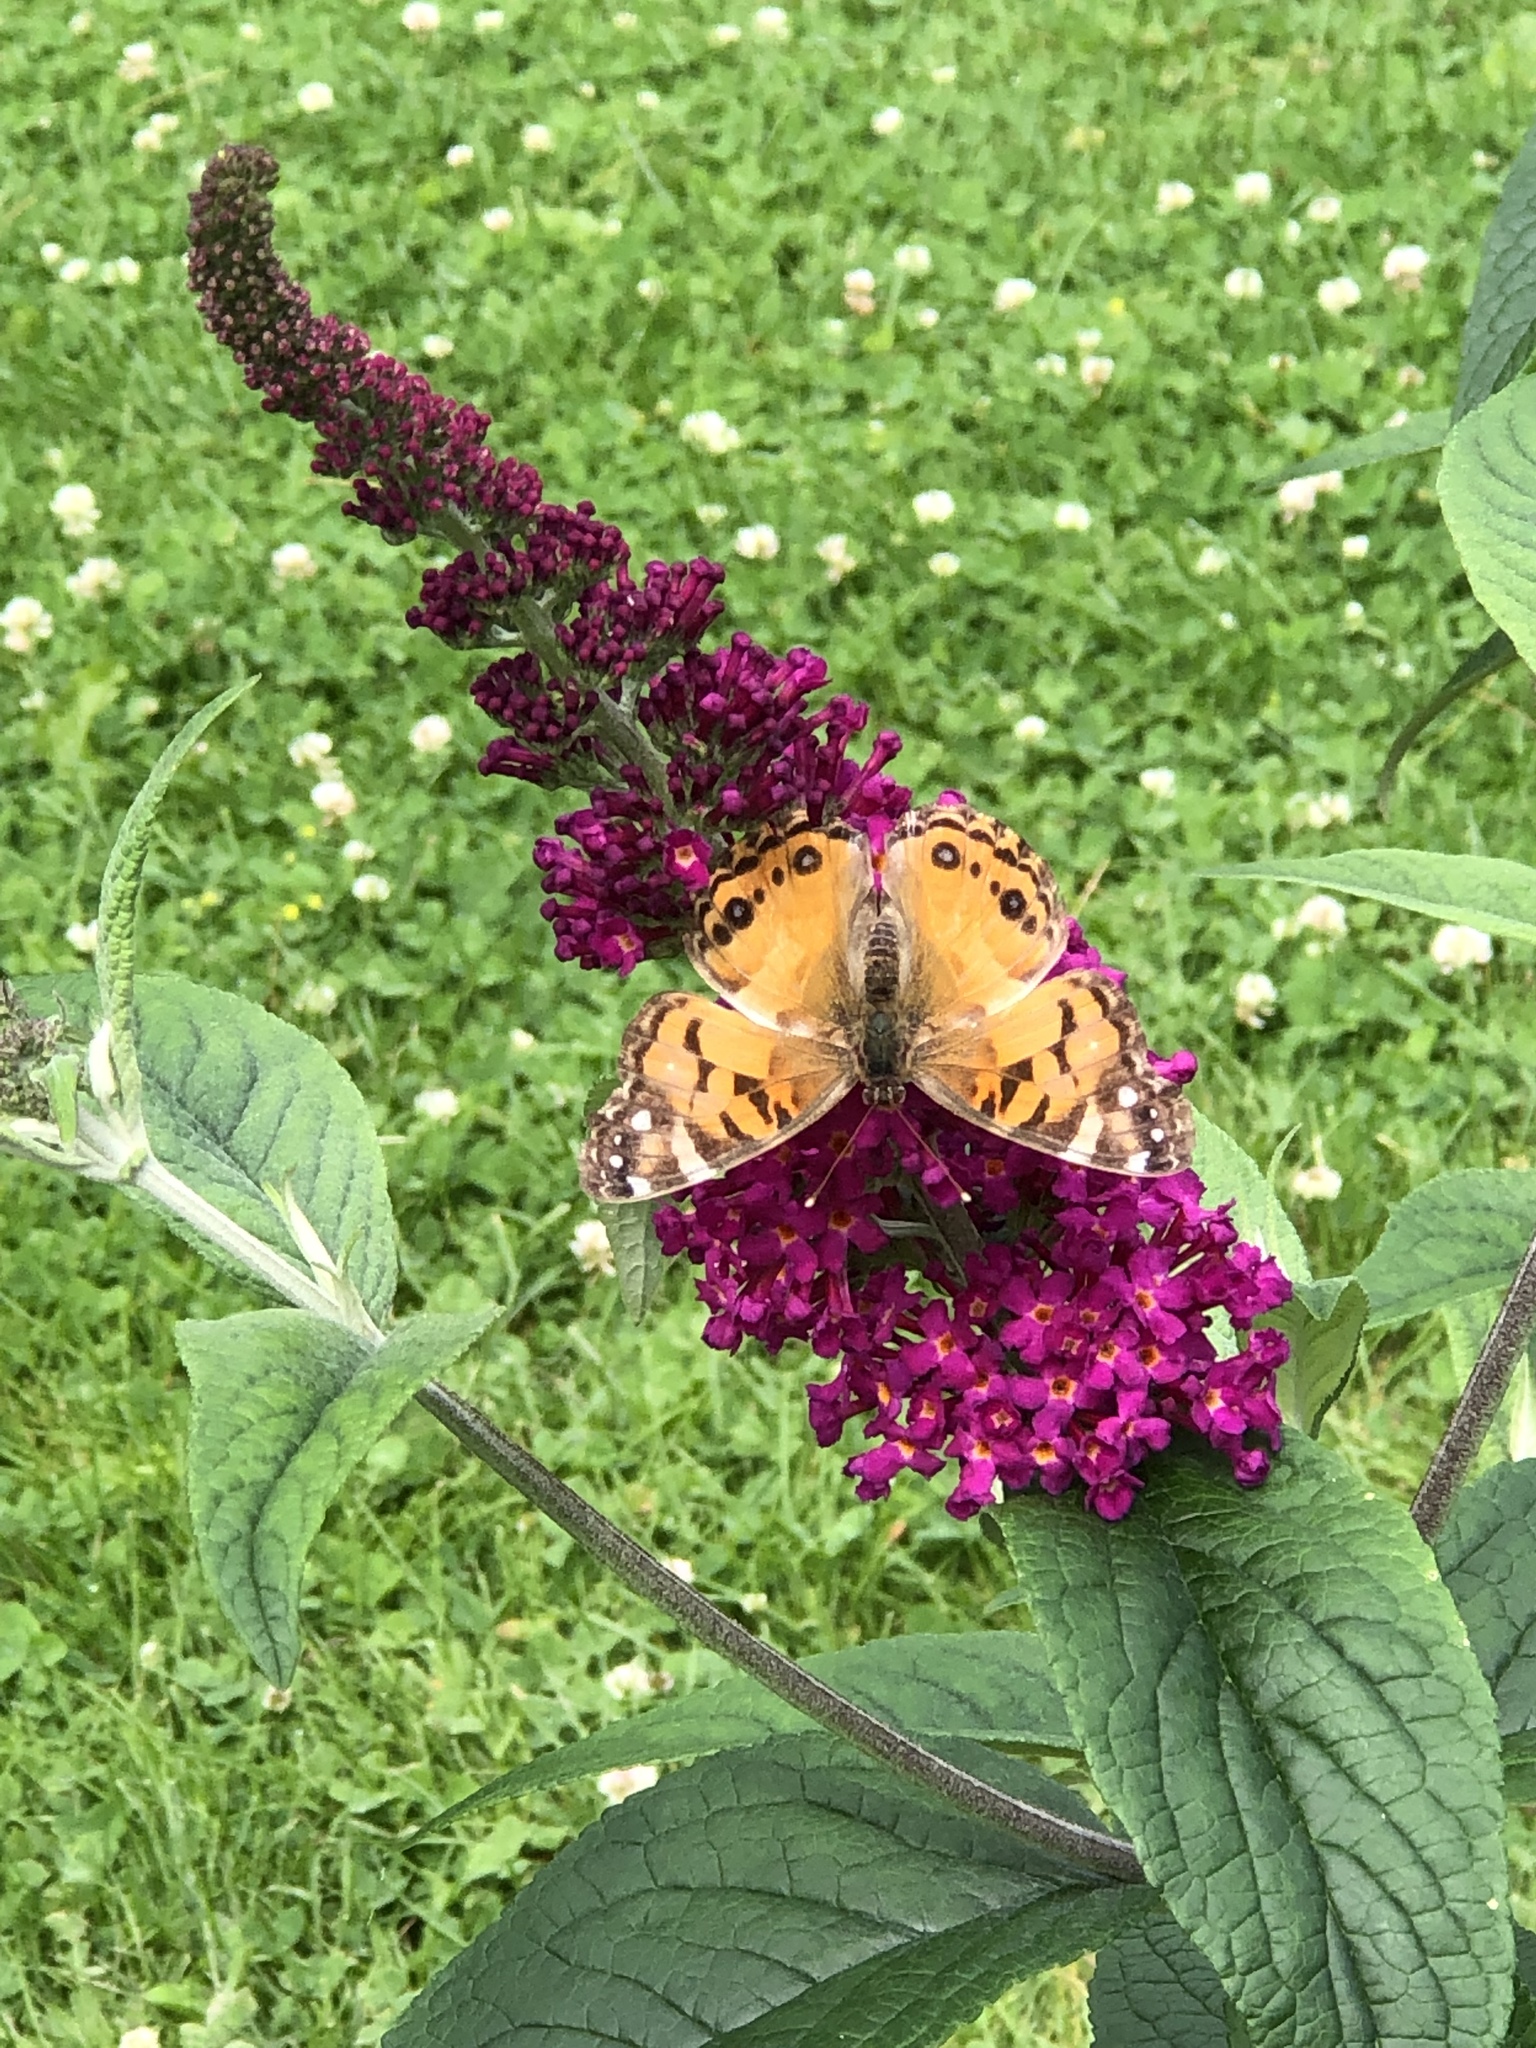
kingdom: Animalia
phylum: Arthropoda
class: Insecta
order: Lepidoptera
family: Nymphalidae
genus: Vanessa
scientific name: Vanessa virginiensis
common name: American lady
